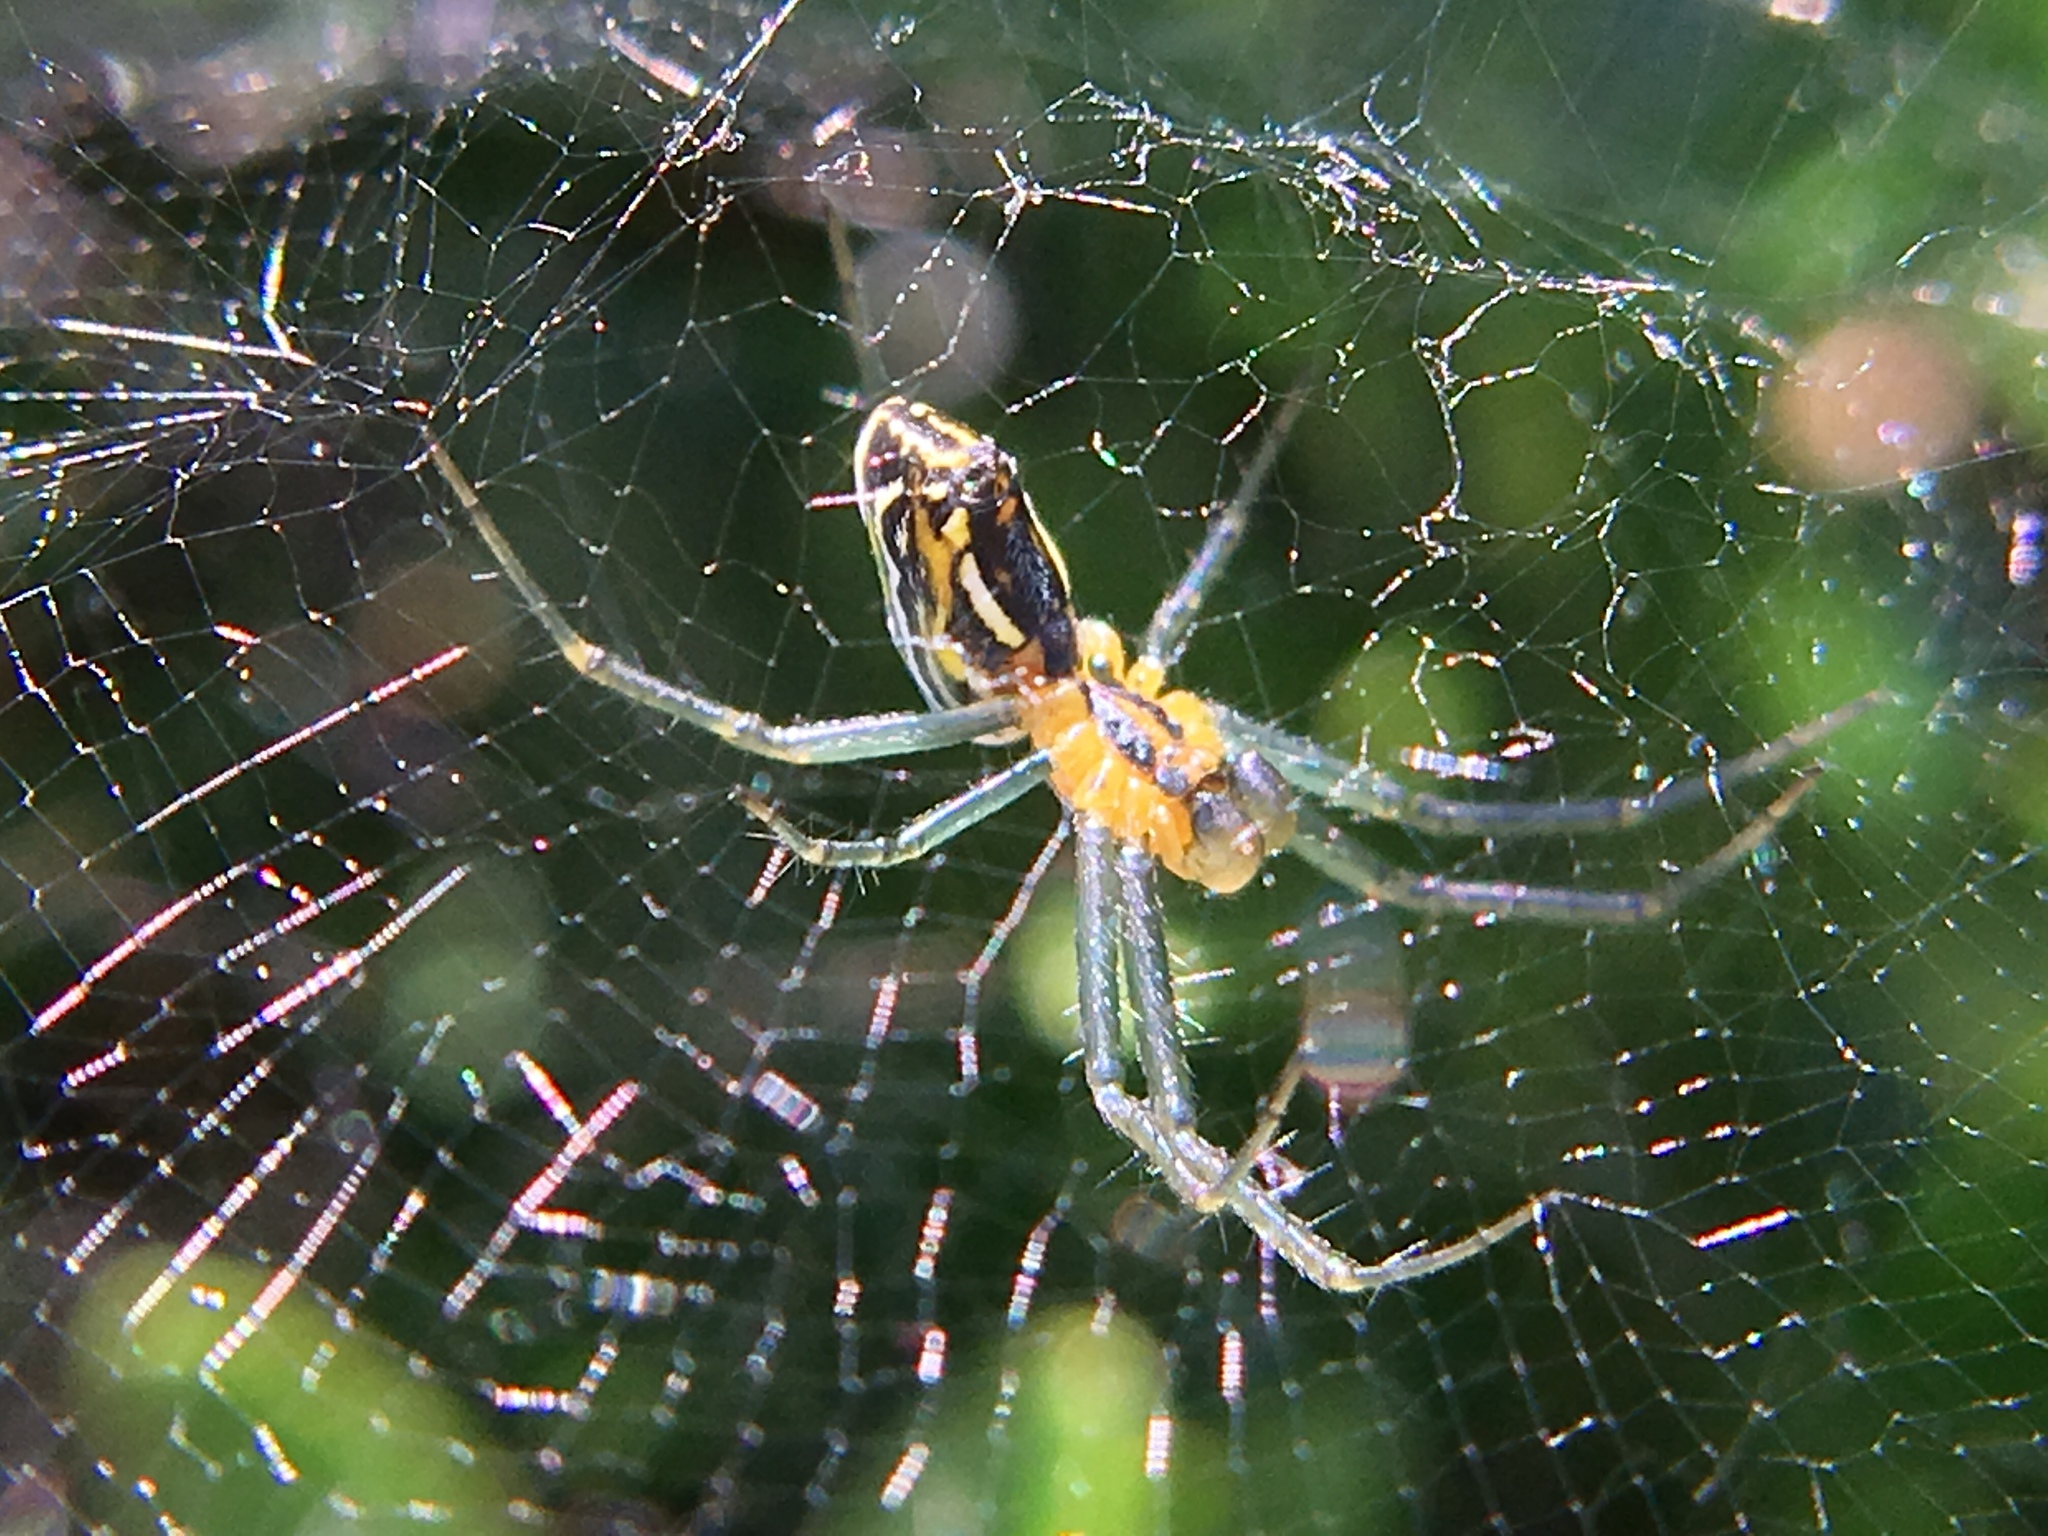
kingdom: Animalia
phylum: Arthropoda
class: Arachnida
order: Araneae
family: Araneidae
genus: Mecynogea
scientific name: Mecynogea lemniscata
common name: Orb weavers
